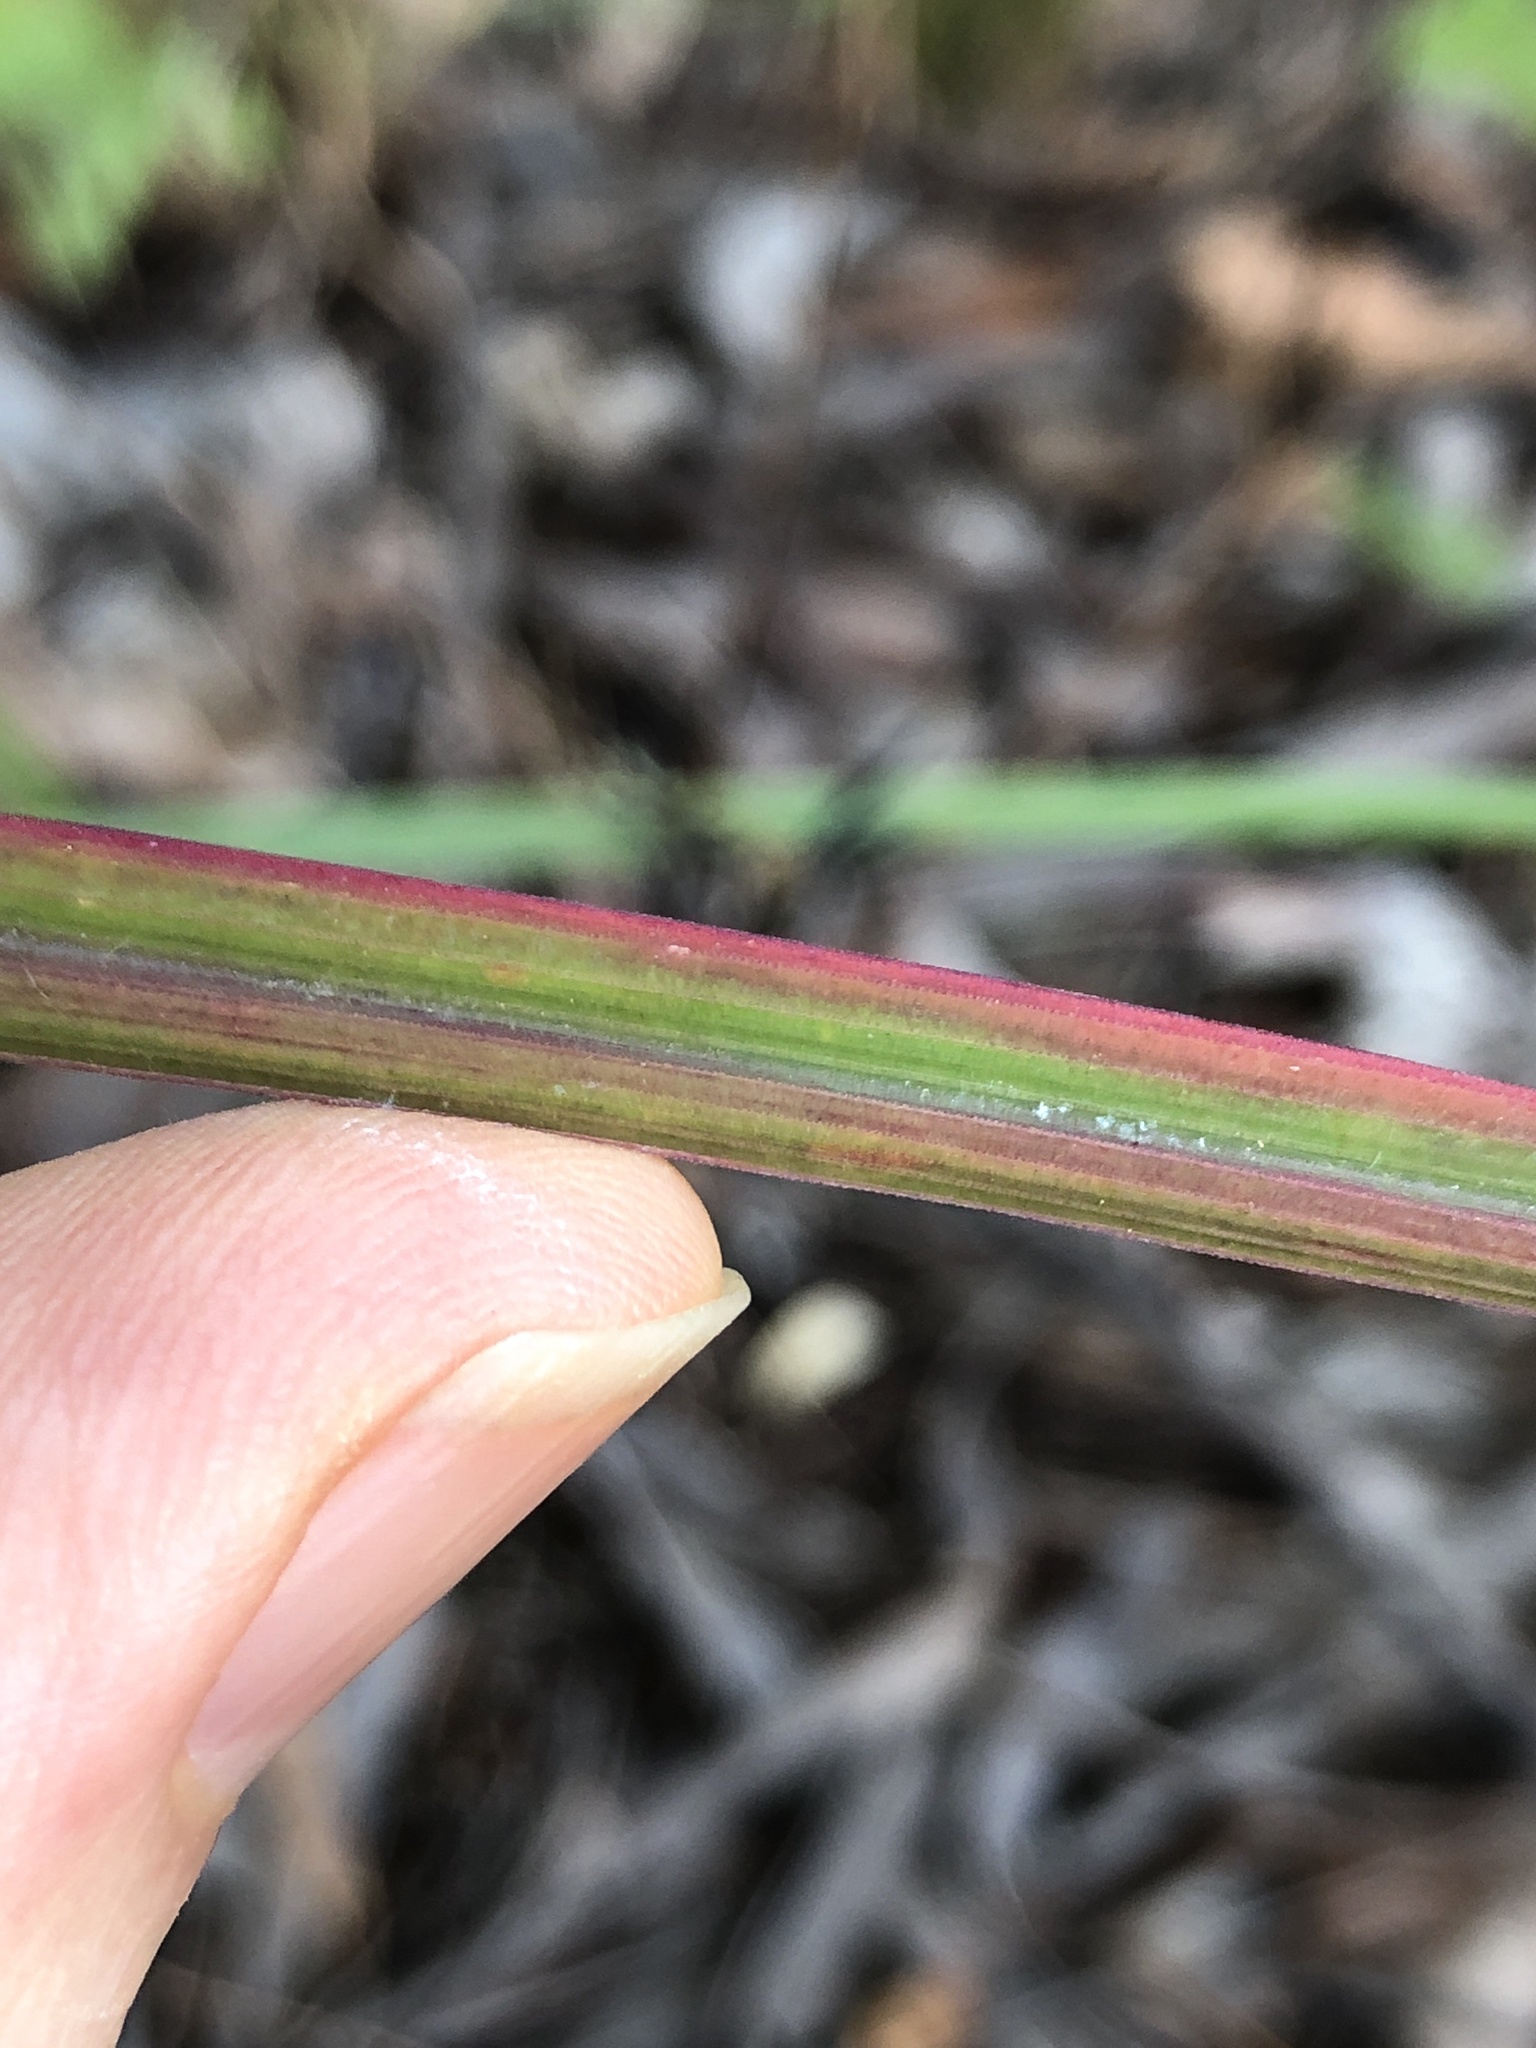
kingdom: Plantae
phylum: Tracheophyta
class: Liliopsida
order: Poales
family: Poaceae
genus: Heteropogon
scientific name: Heteropogon triticeus
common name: Sugar grass
